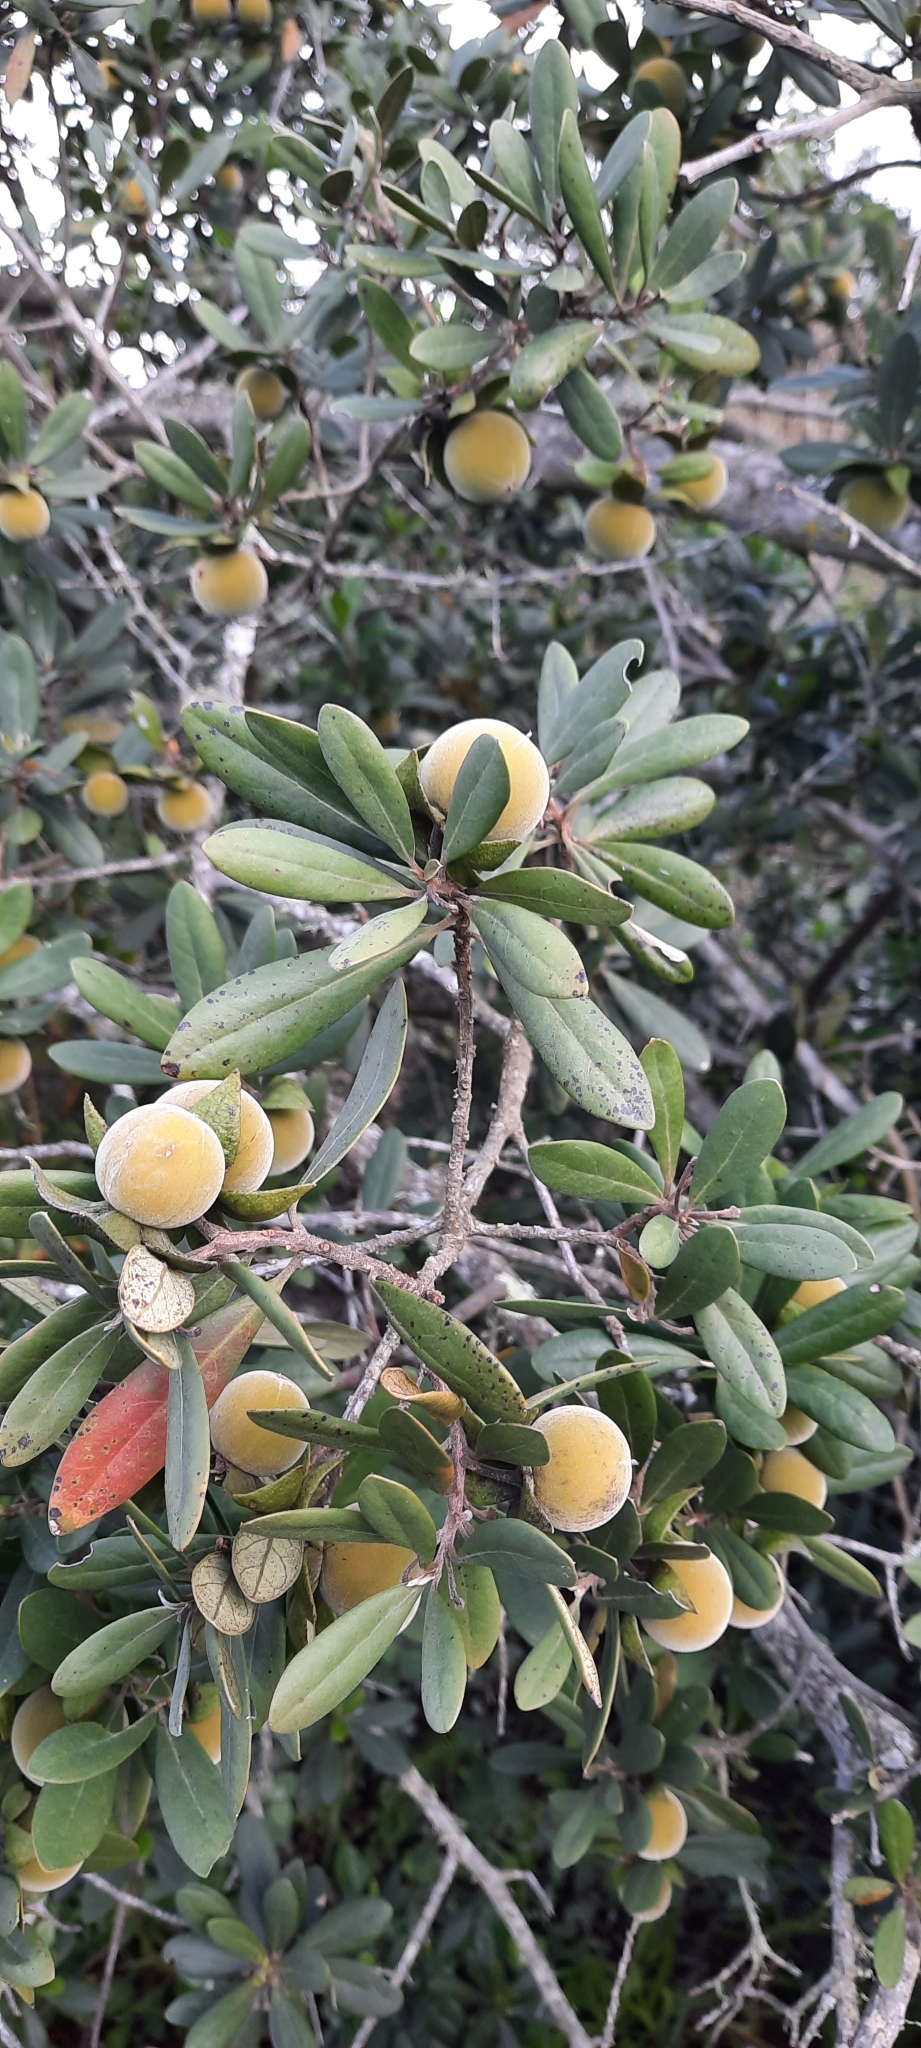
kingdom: Plantae
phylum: Tracheophyta
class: Magnoliopsida
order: Ericales
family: Ebenaceae
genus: Diospyros
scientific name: Diospyros dichrophylla
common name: Common star-apple
